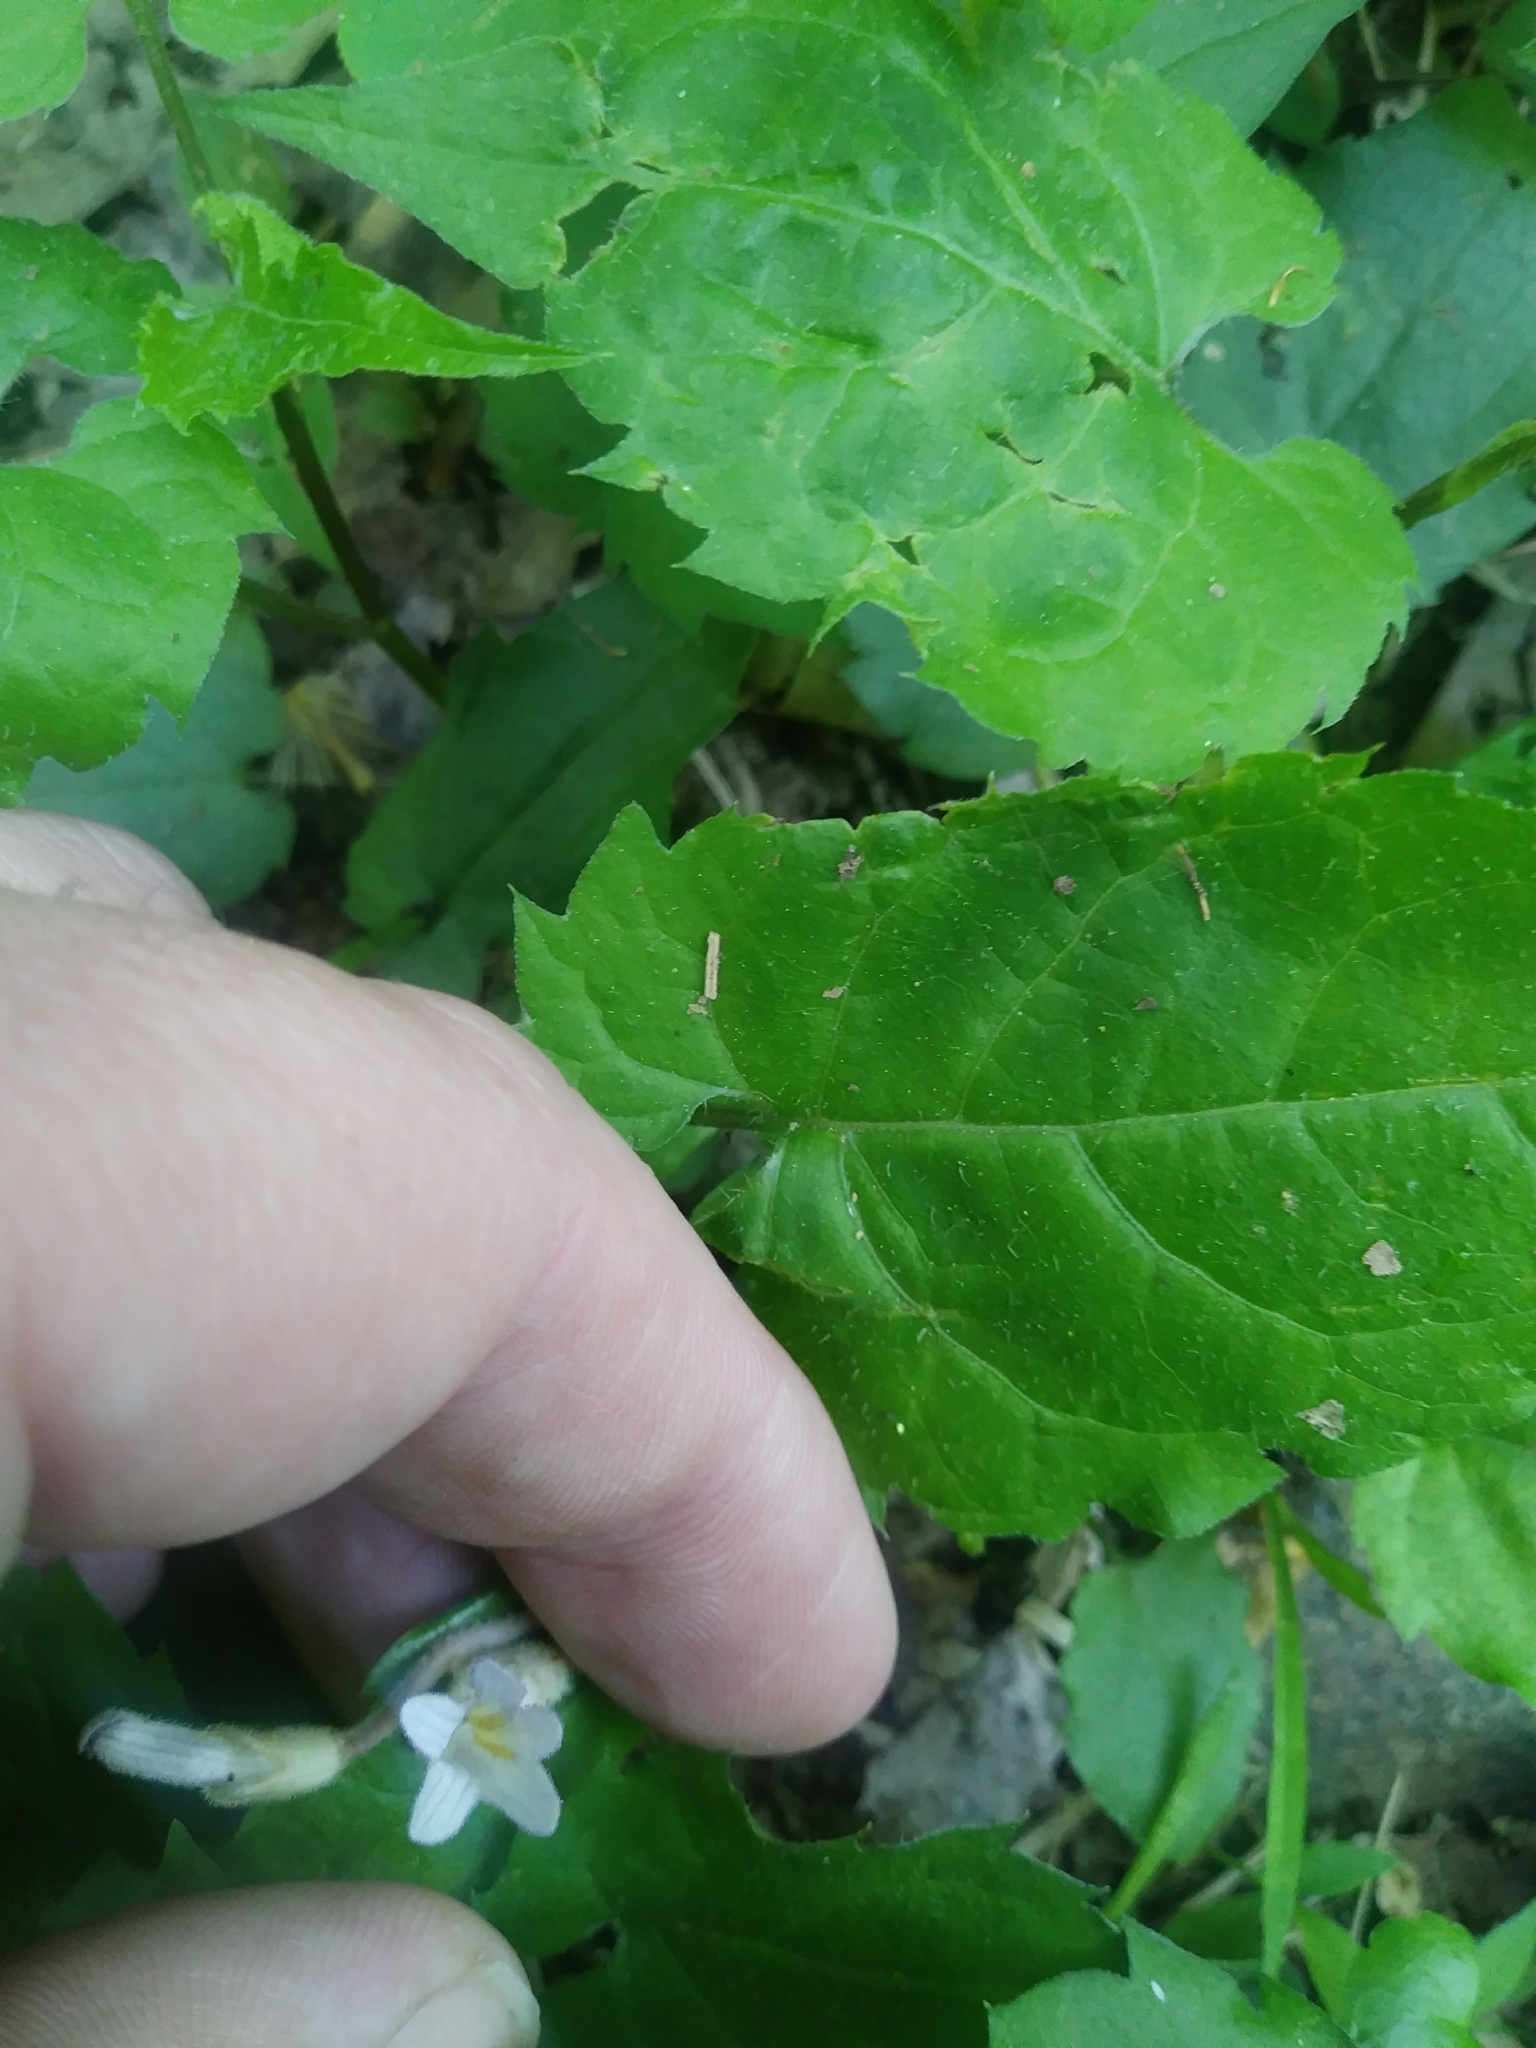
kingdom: Plantae
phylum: Tracheophyta
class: Magnoliopsida
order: Lamiales
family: Orobanchaceae
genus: Aphyllon
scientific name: Aphyllon uniflorum
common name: One-flowered broomrape
